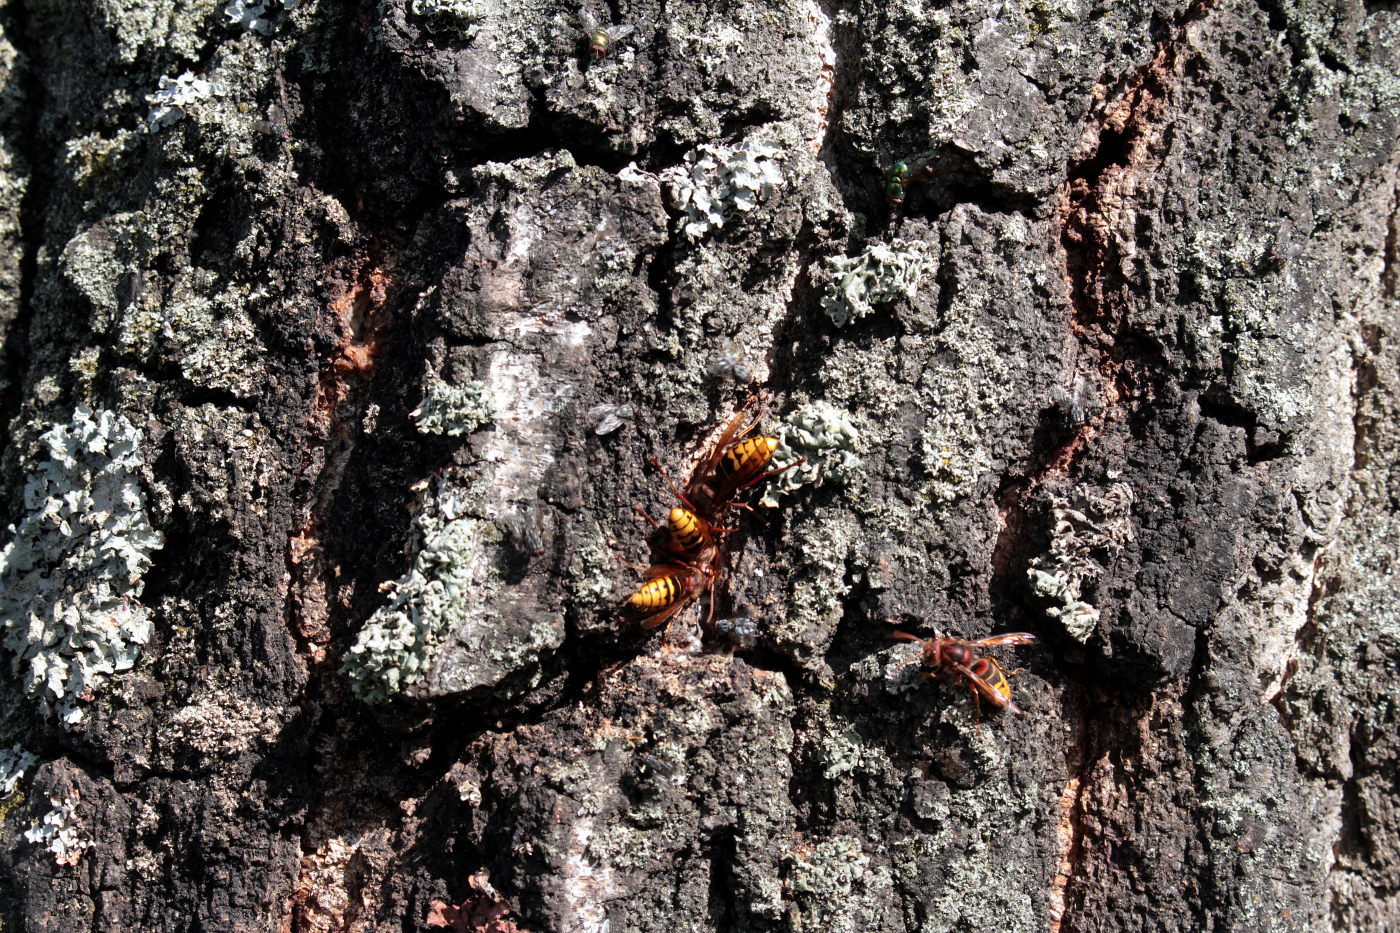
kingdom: Animalia
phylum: Arthropoda
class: Insecta
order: Hymenoptera
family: Vespidae
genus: Vespa
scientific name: Vespa crabro
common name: Hornet
